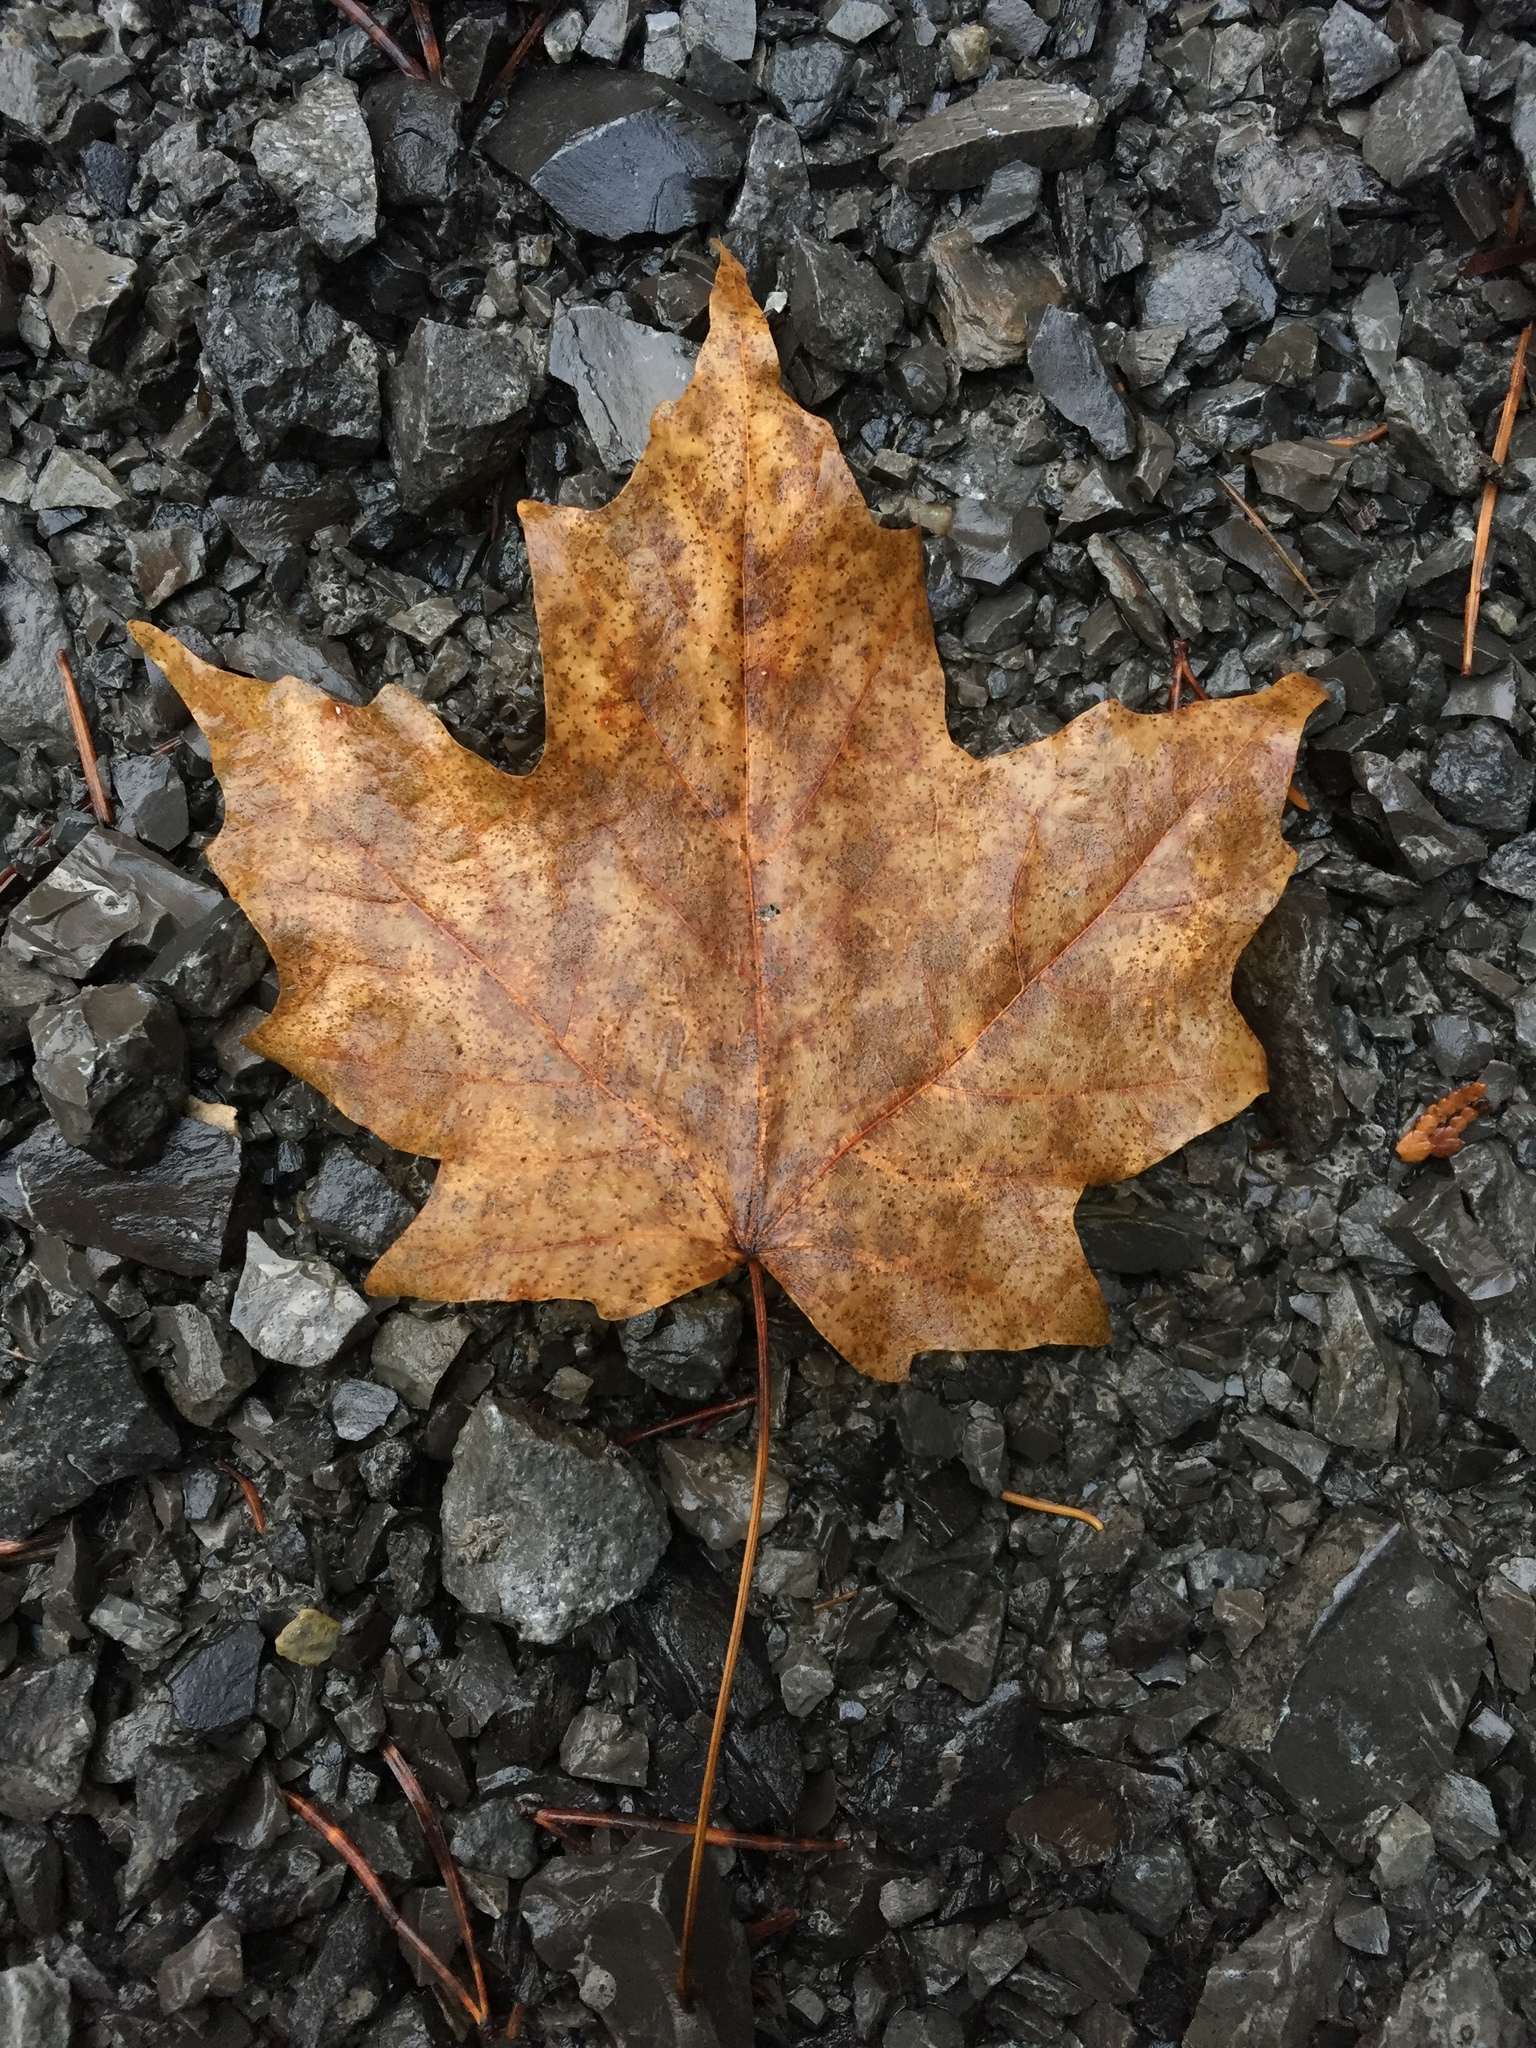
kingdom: Plantae
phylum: Tracheophyta
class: Magnoliopsida
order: Sapindales
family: Sapindaceae
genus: Acer
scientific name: Acer saccharum
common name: Sugar maple
